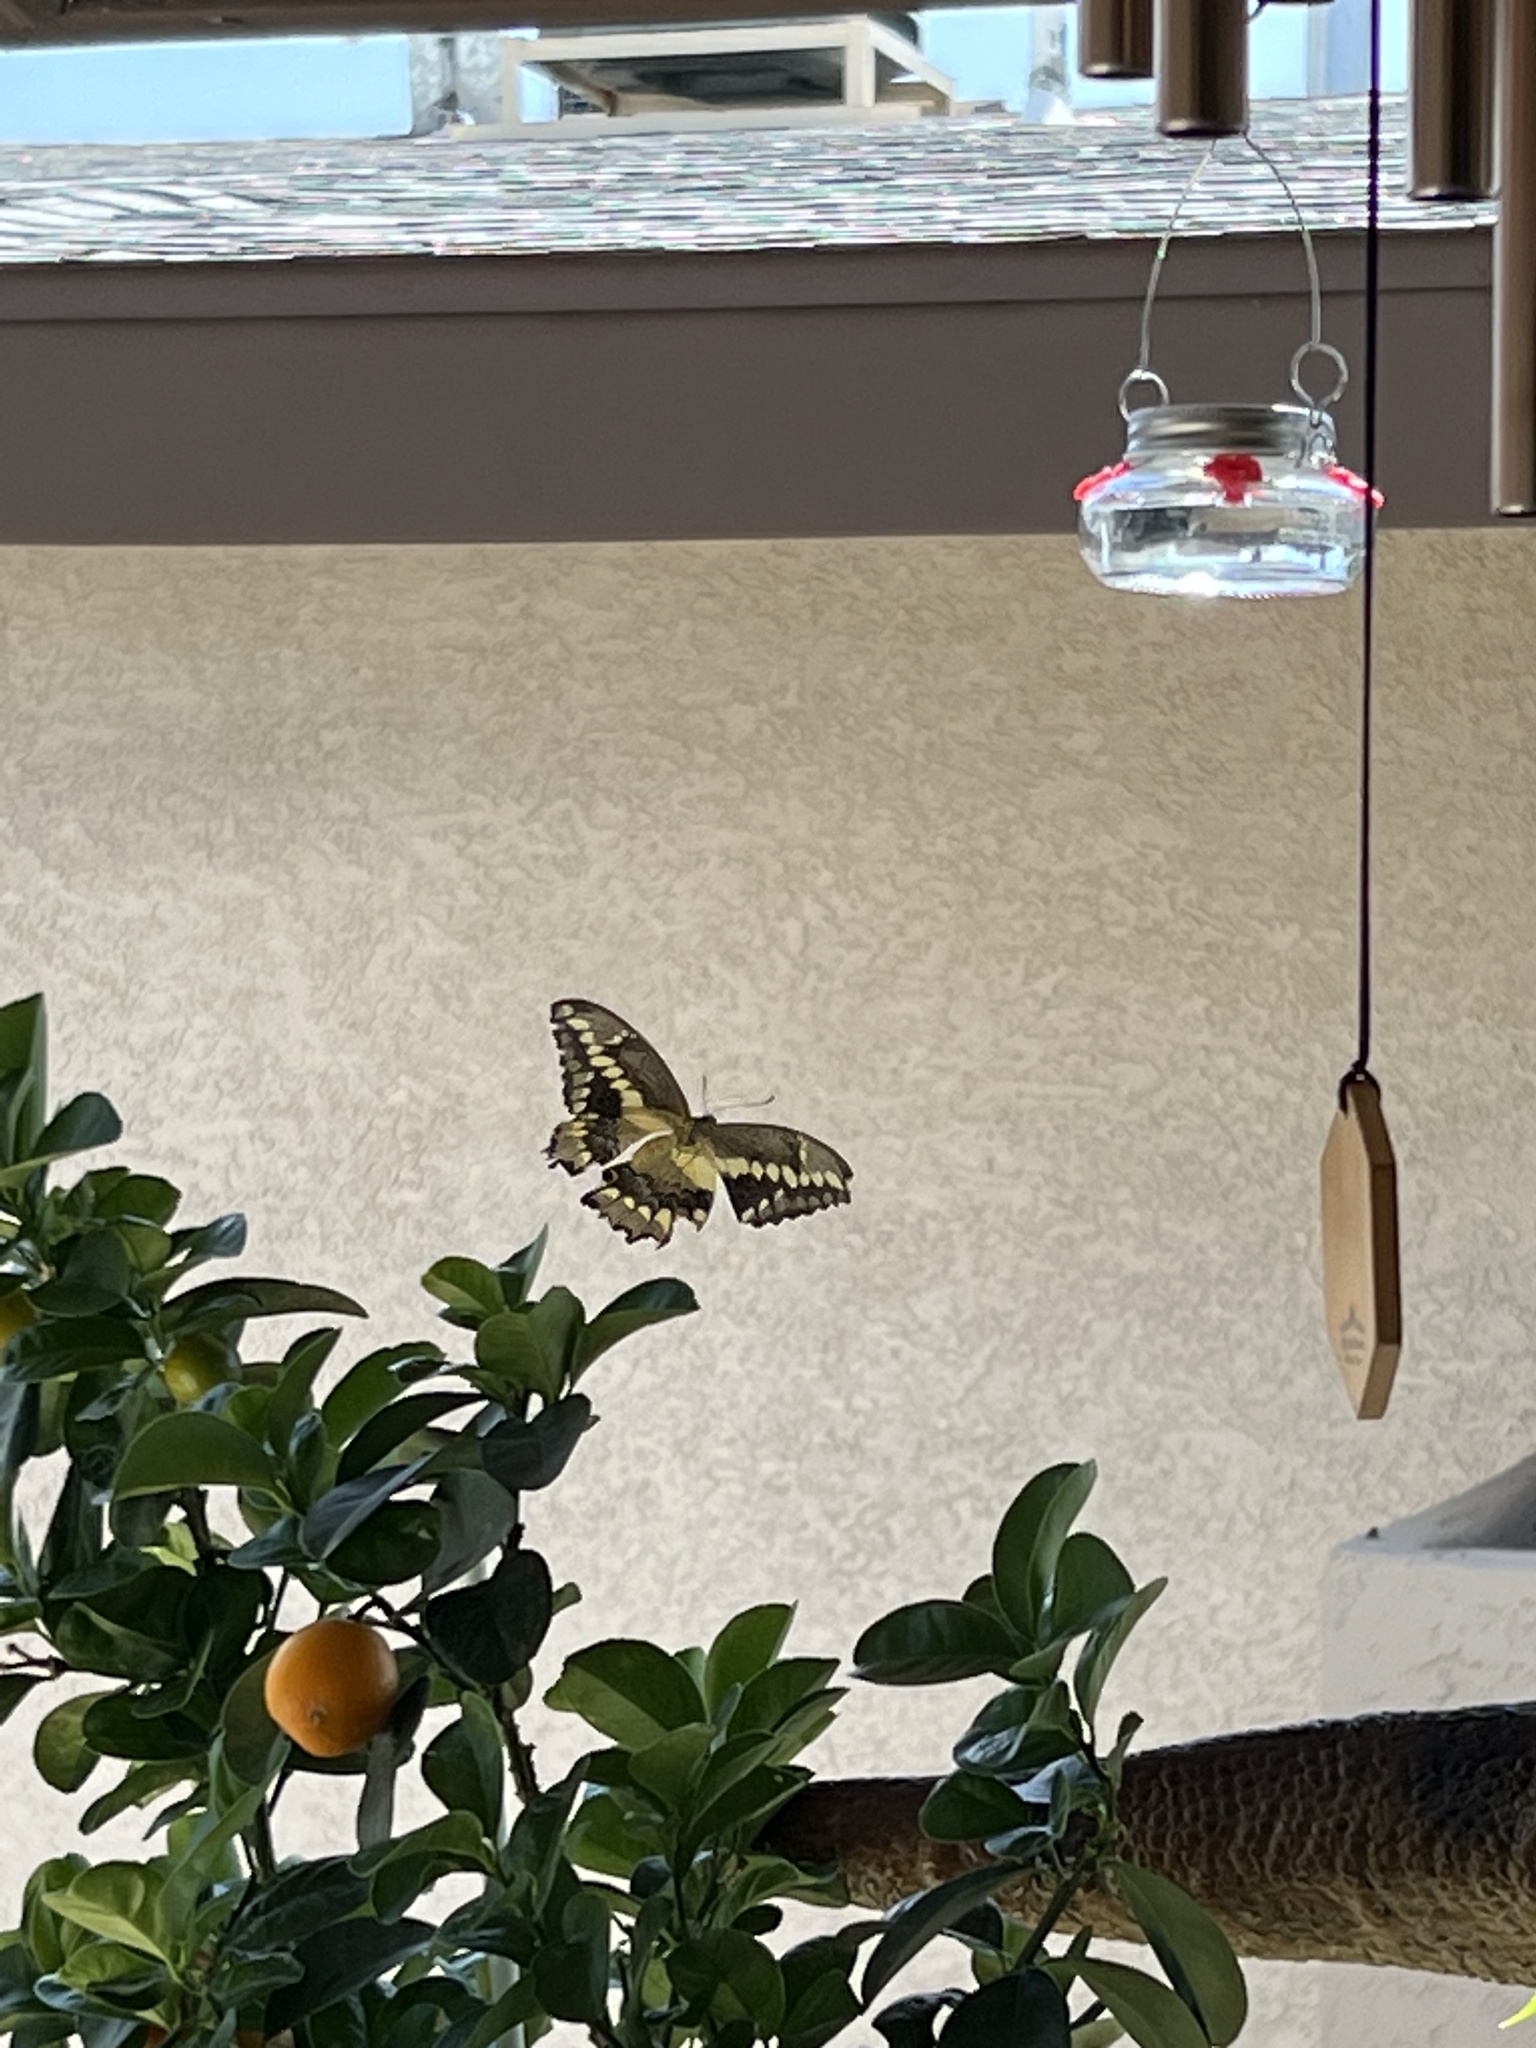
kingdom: Animalia
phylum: Arthropoda
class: Insecta
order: Lepidoptera
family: Papilionidae
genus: Papilio
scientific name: Papilio rumiko
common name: Western giant swallowtail
